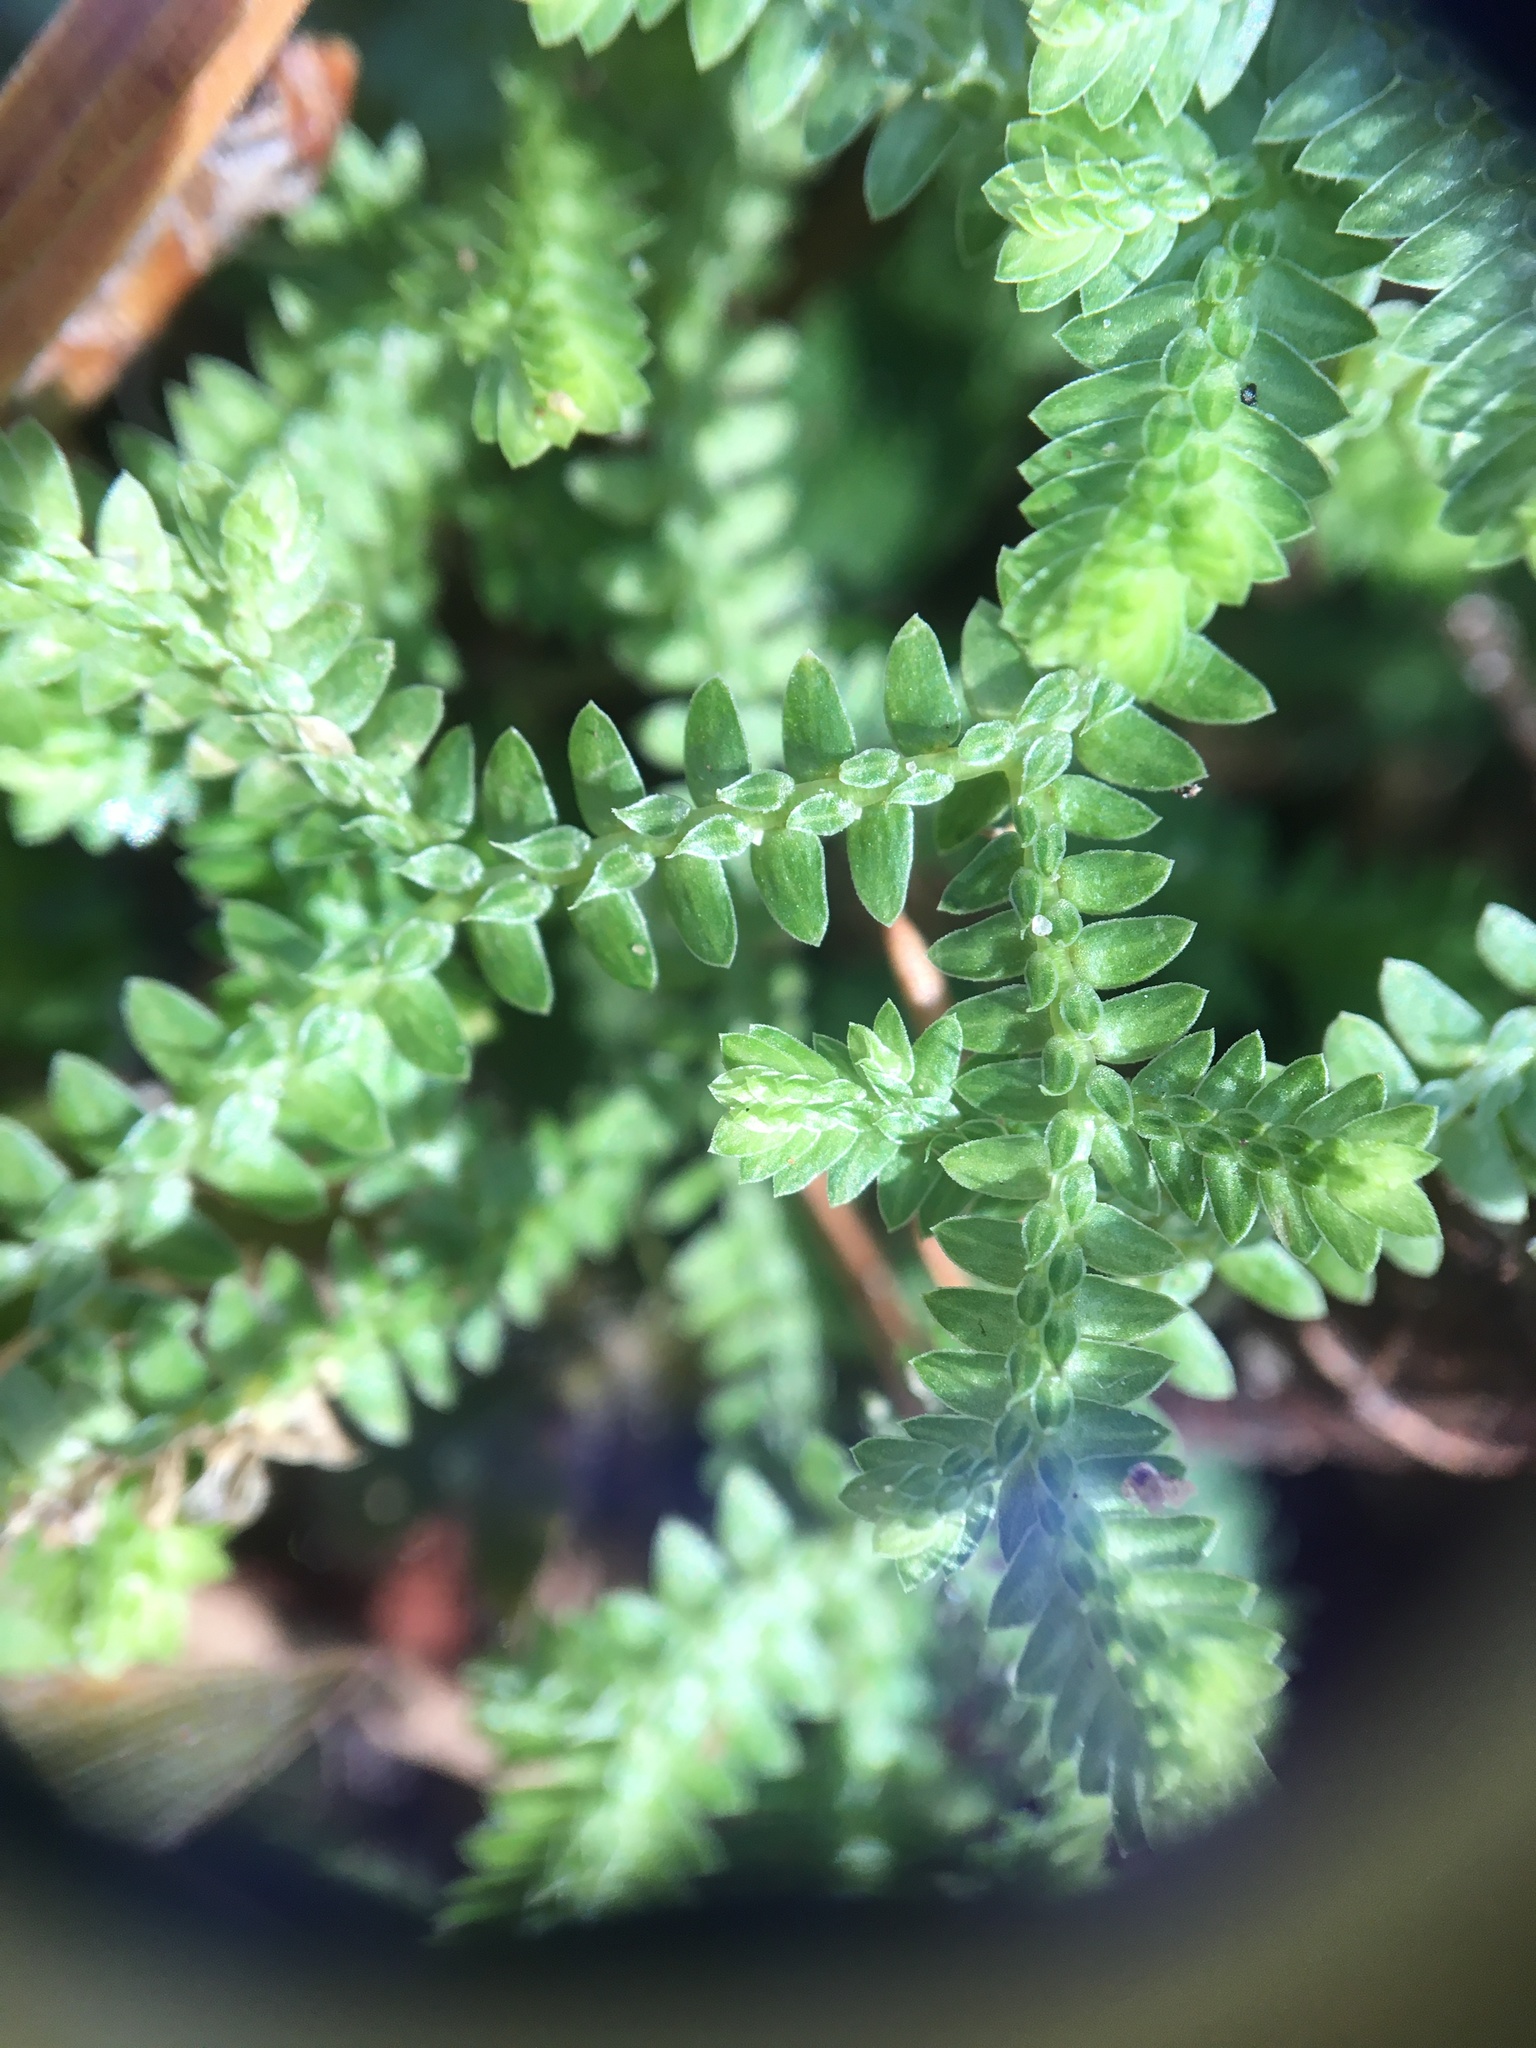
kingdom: Plantae
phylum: Tracheophyta
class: Lycopodiopsida
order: Selaginellales
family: Selaginellaceae
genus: Selaginella
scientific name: Selaginella ludoviciana
